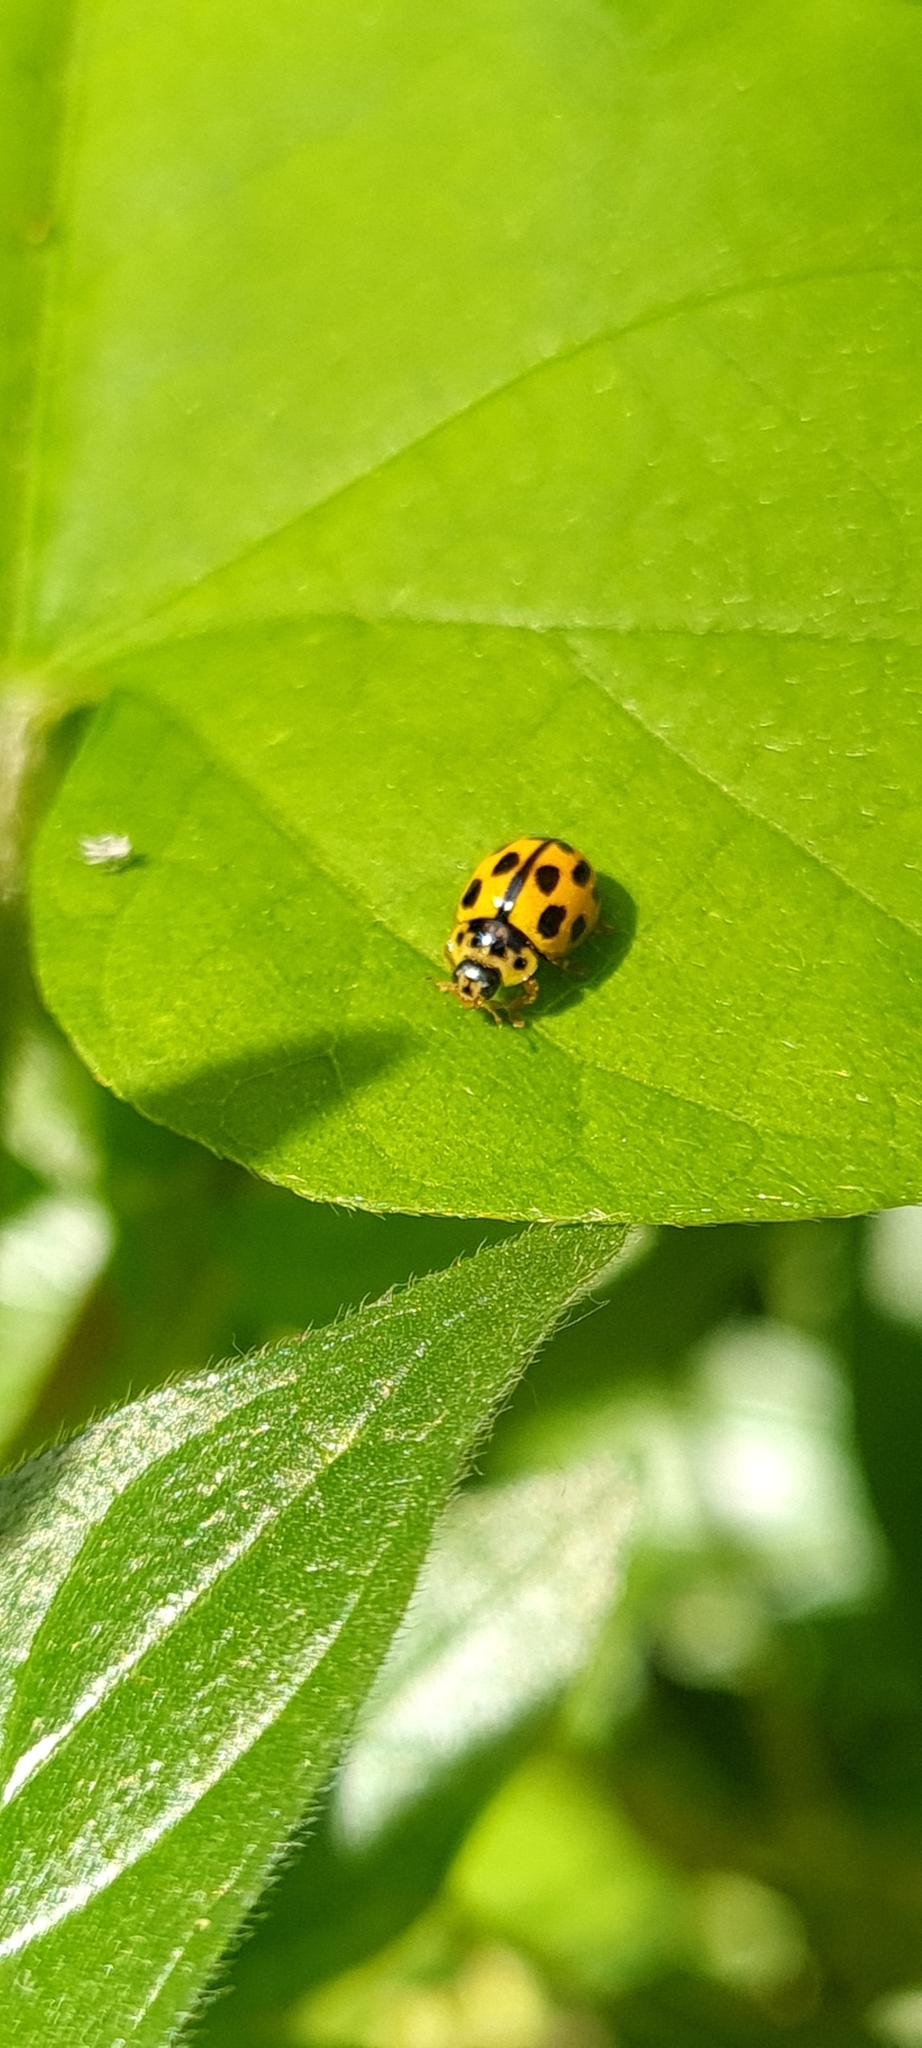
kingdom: Animalia
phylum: Arthropoda
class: Insecta
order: Coleoptera
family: Coccinellidae
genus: Propylaea
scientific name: Propylaea quatuordecimpunctata
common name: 14-spotted ladybird beetle
